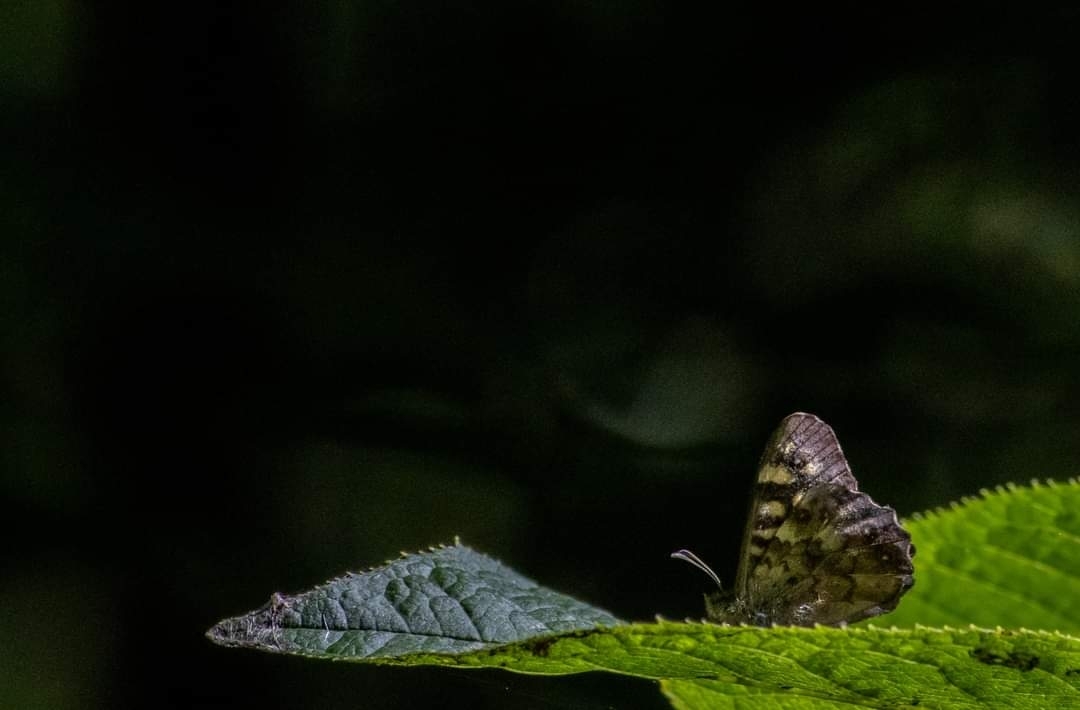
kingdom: Animalia
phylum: Arthropoda
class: Insecta
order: Lepidoptera
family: Nymphalidae
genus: Pararge
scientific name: Pararge aegeria
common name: Speckled wood
